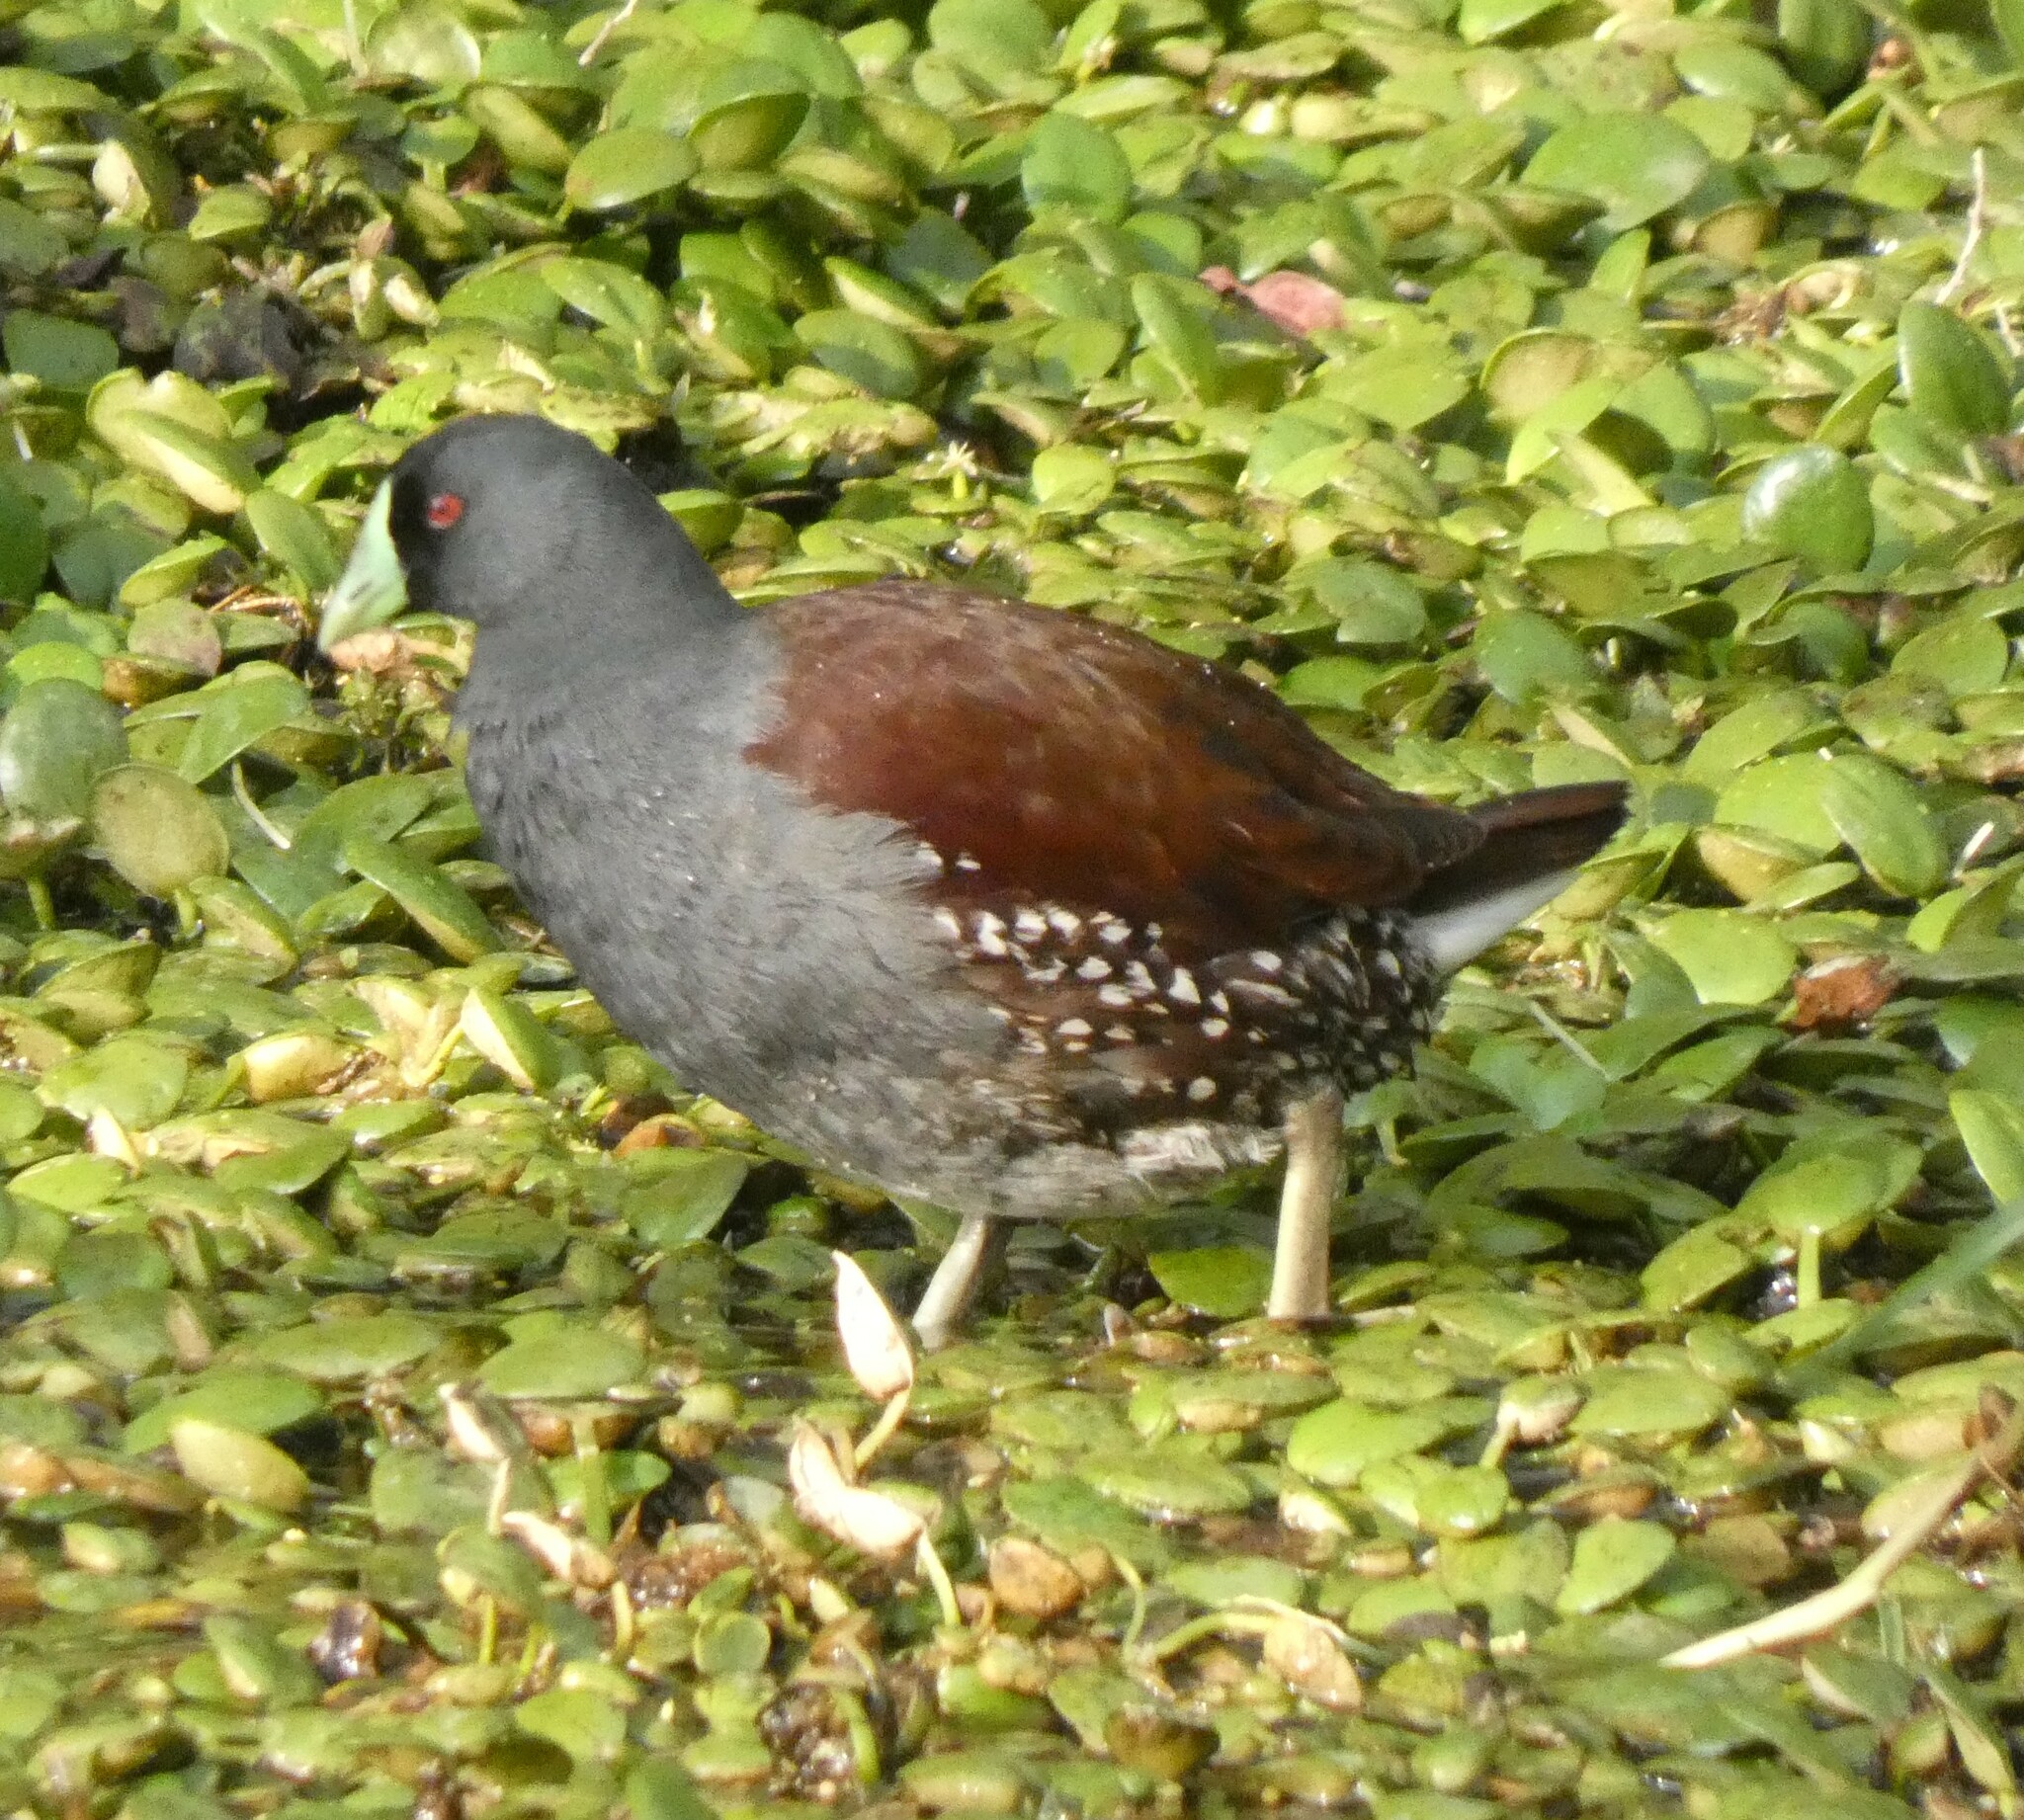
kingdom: Animalia
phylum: Chordata
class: Aves
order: Gruiformes
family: Rallidae
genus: Gallinula
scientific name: Gallinula melanops
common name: Spot-flanked gallinule
